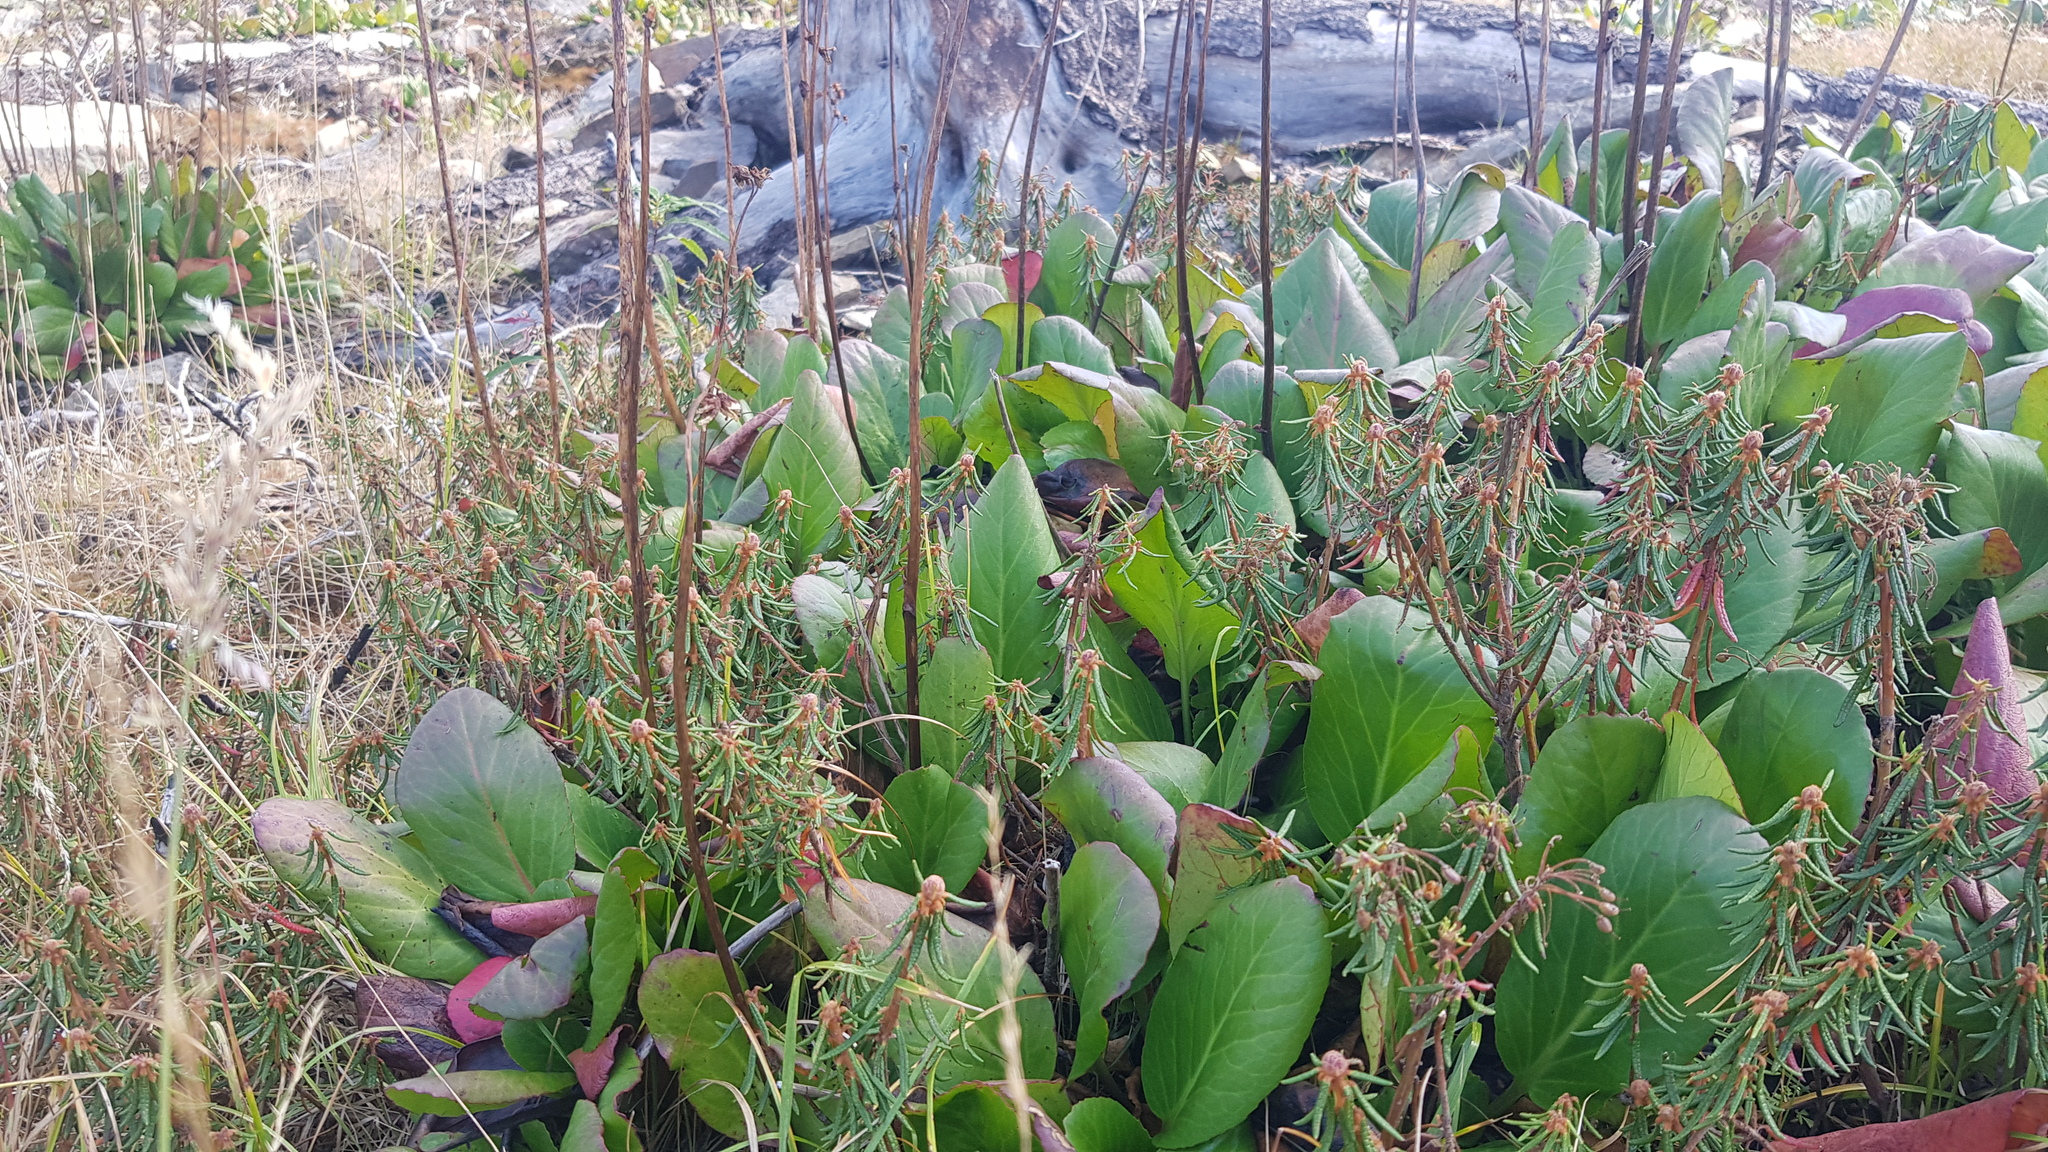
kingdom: Plantae
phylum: Tracheophyta
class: Magnoliopsida
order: Saxifragales
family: Saxifragaceae
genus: Bergenia
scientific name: Bergenia crassifolia
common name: Elephant-ears
